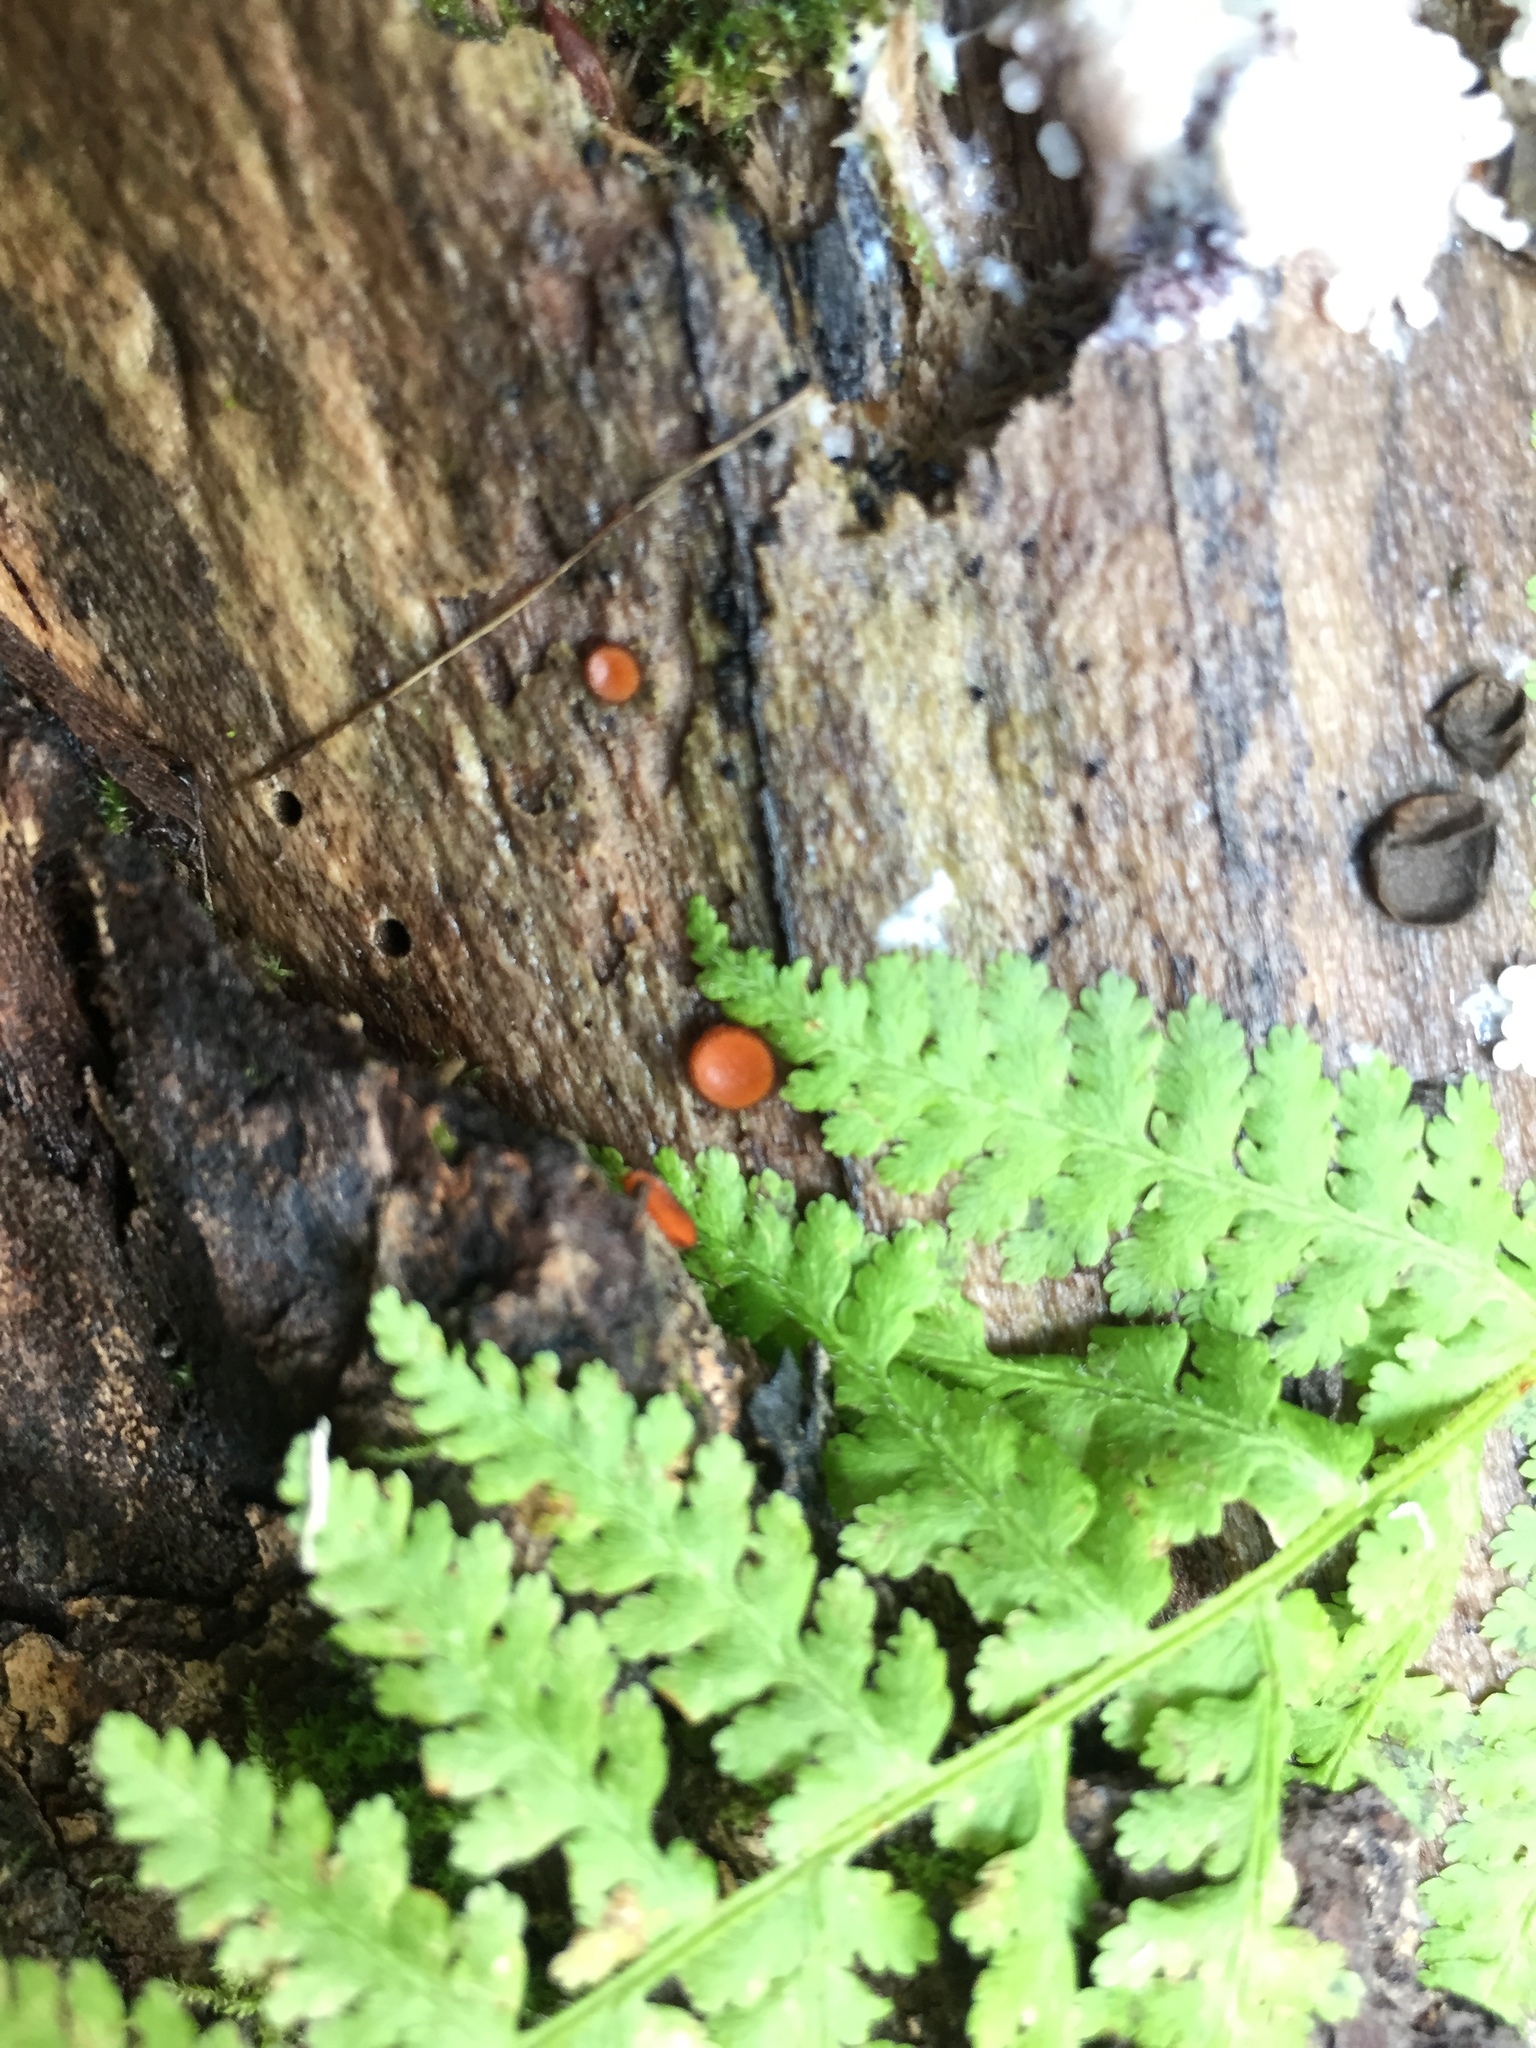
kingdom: Fungi
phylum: Ascomycota
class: Pezizomycetes
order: Pezizales
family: Pyronemataceae
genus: Scutellinia
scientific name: Scutellinia scutellata
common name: Common eyelash
